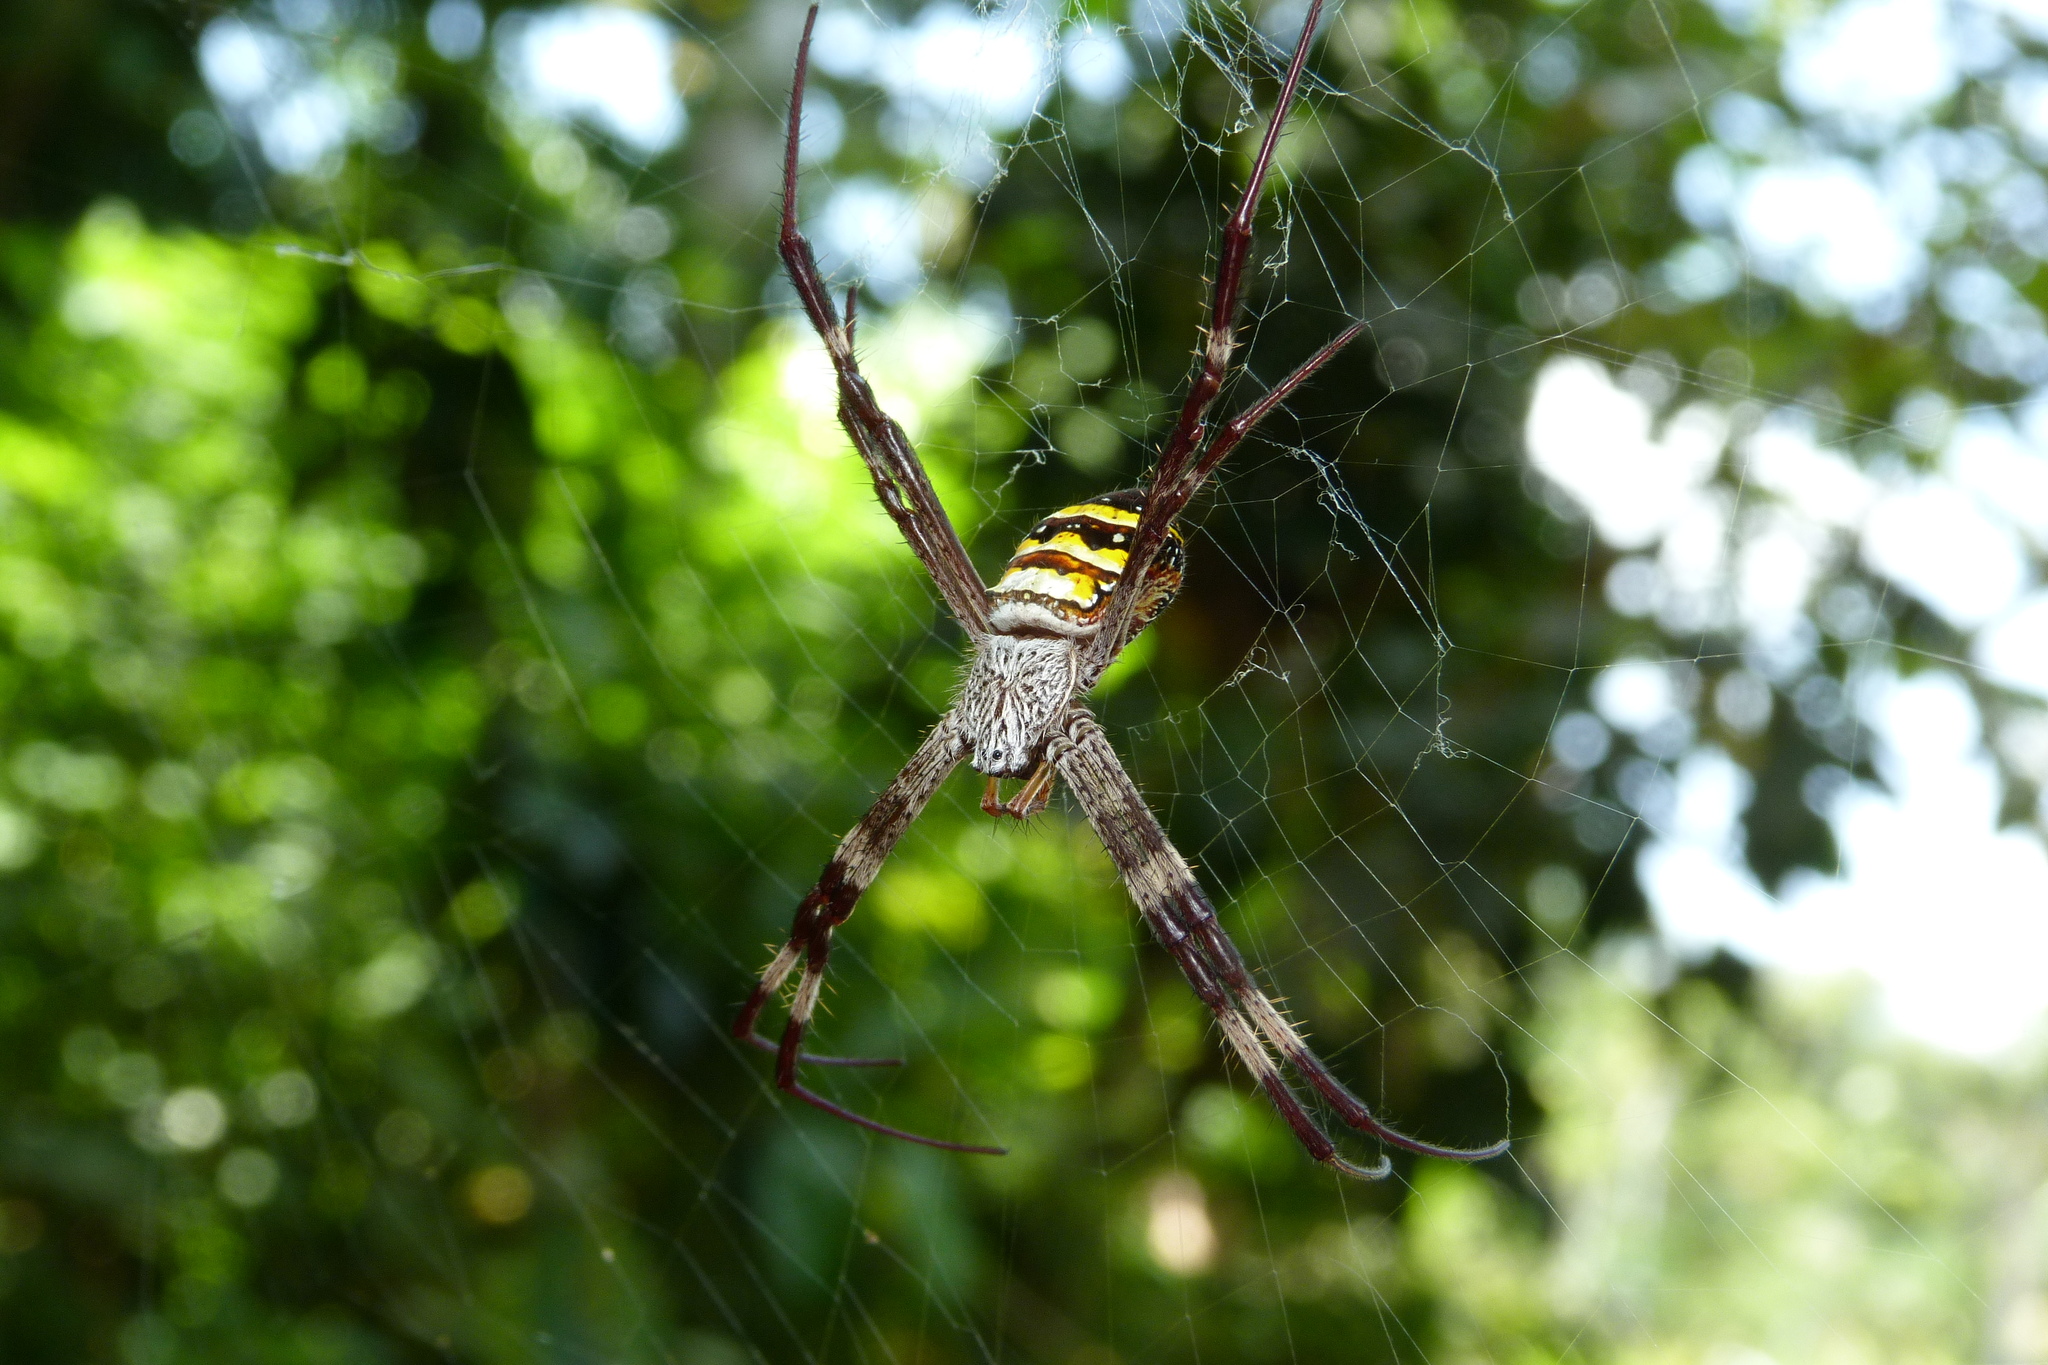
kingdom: Animalia
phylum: Arthropoda
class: Arachnida
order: Araneae
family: Araneidae
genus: Argiope
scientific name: Argiope aetherea
